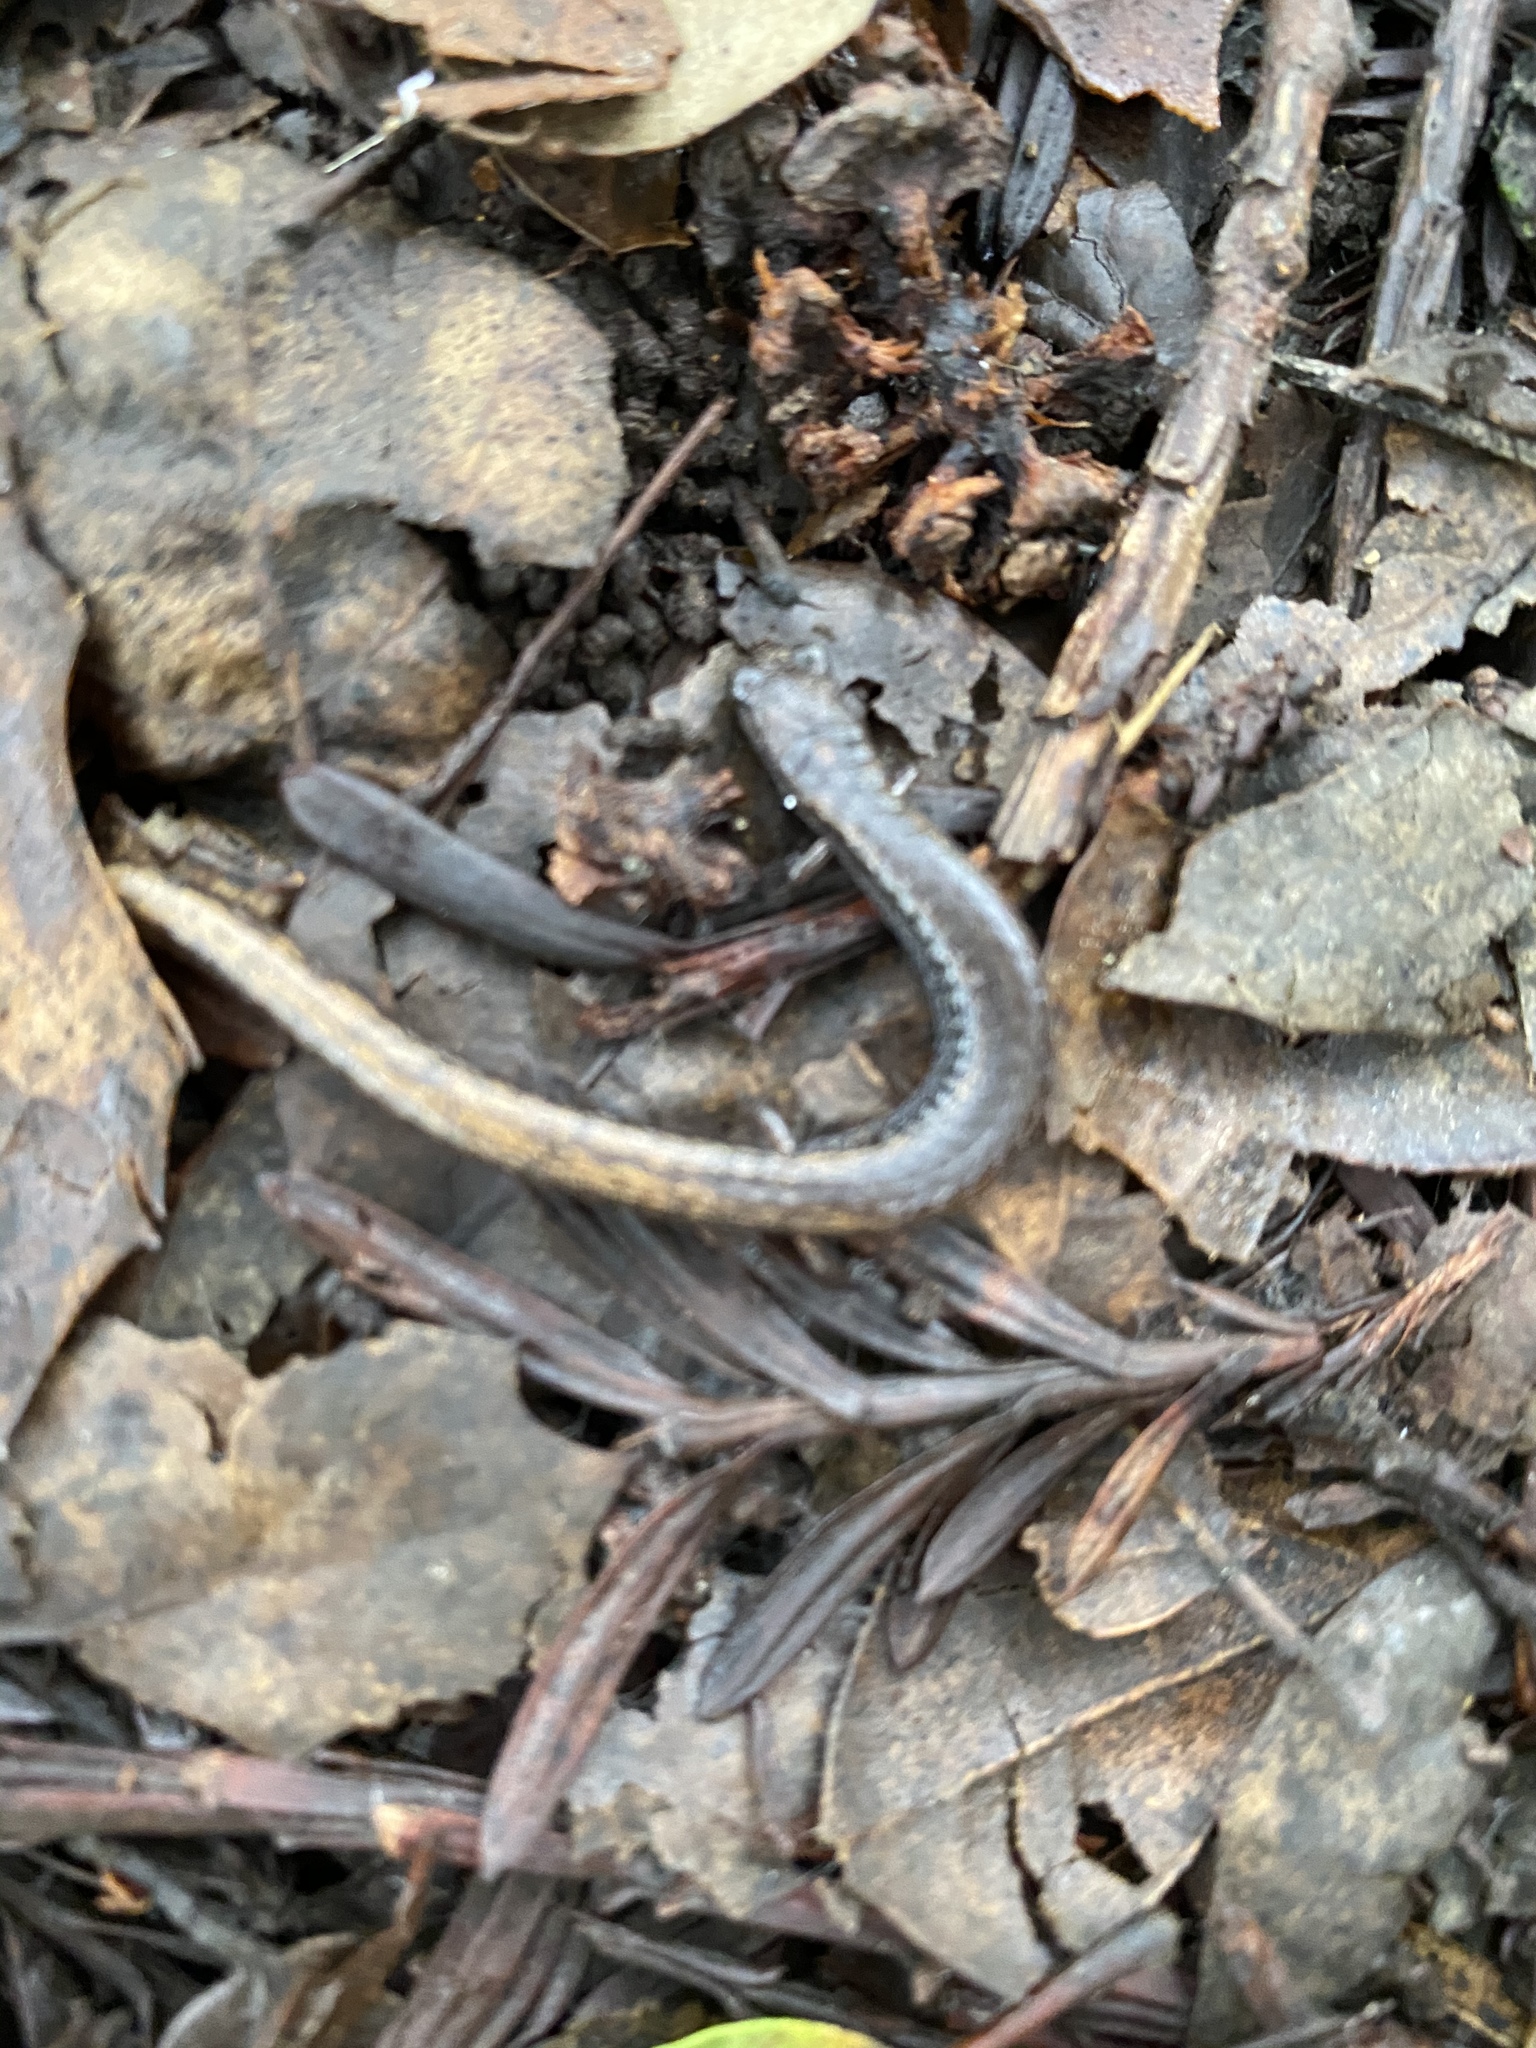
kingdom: Animalia
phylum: Chordata
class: Amphibia
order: Caudata
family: Plethodontidae
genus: Batrachoseps
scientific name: Batrachoseps attenuatus
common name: California slender salamander
